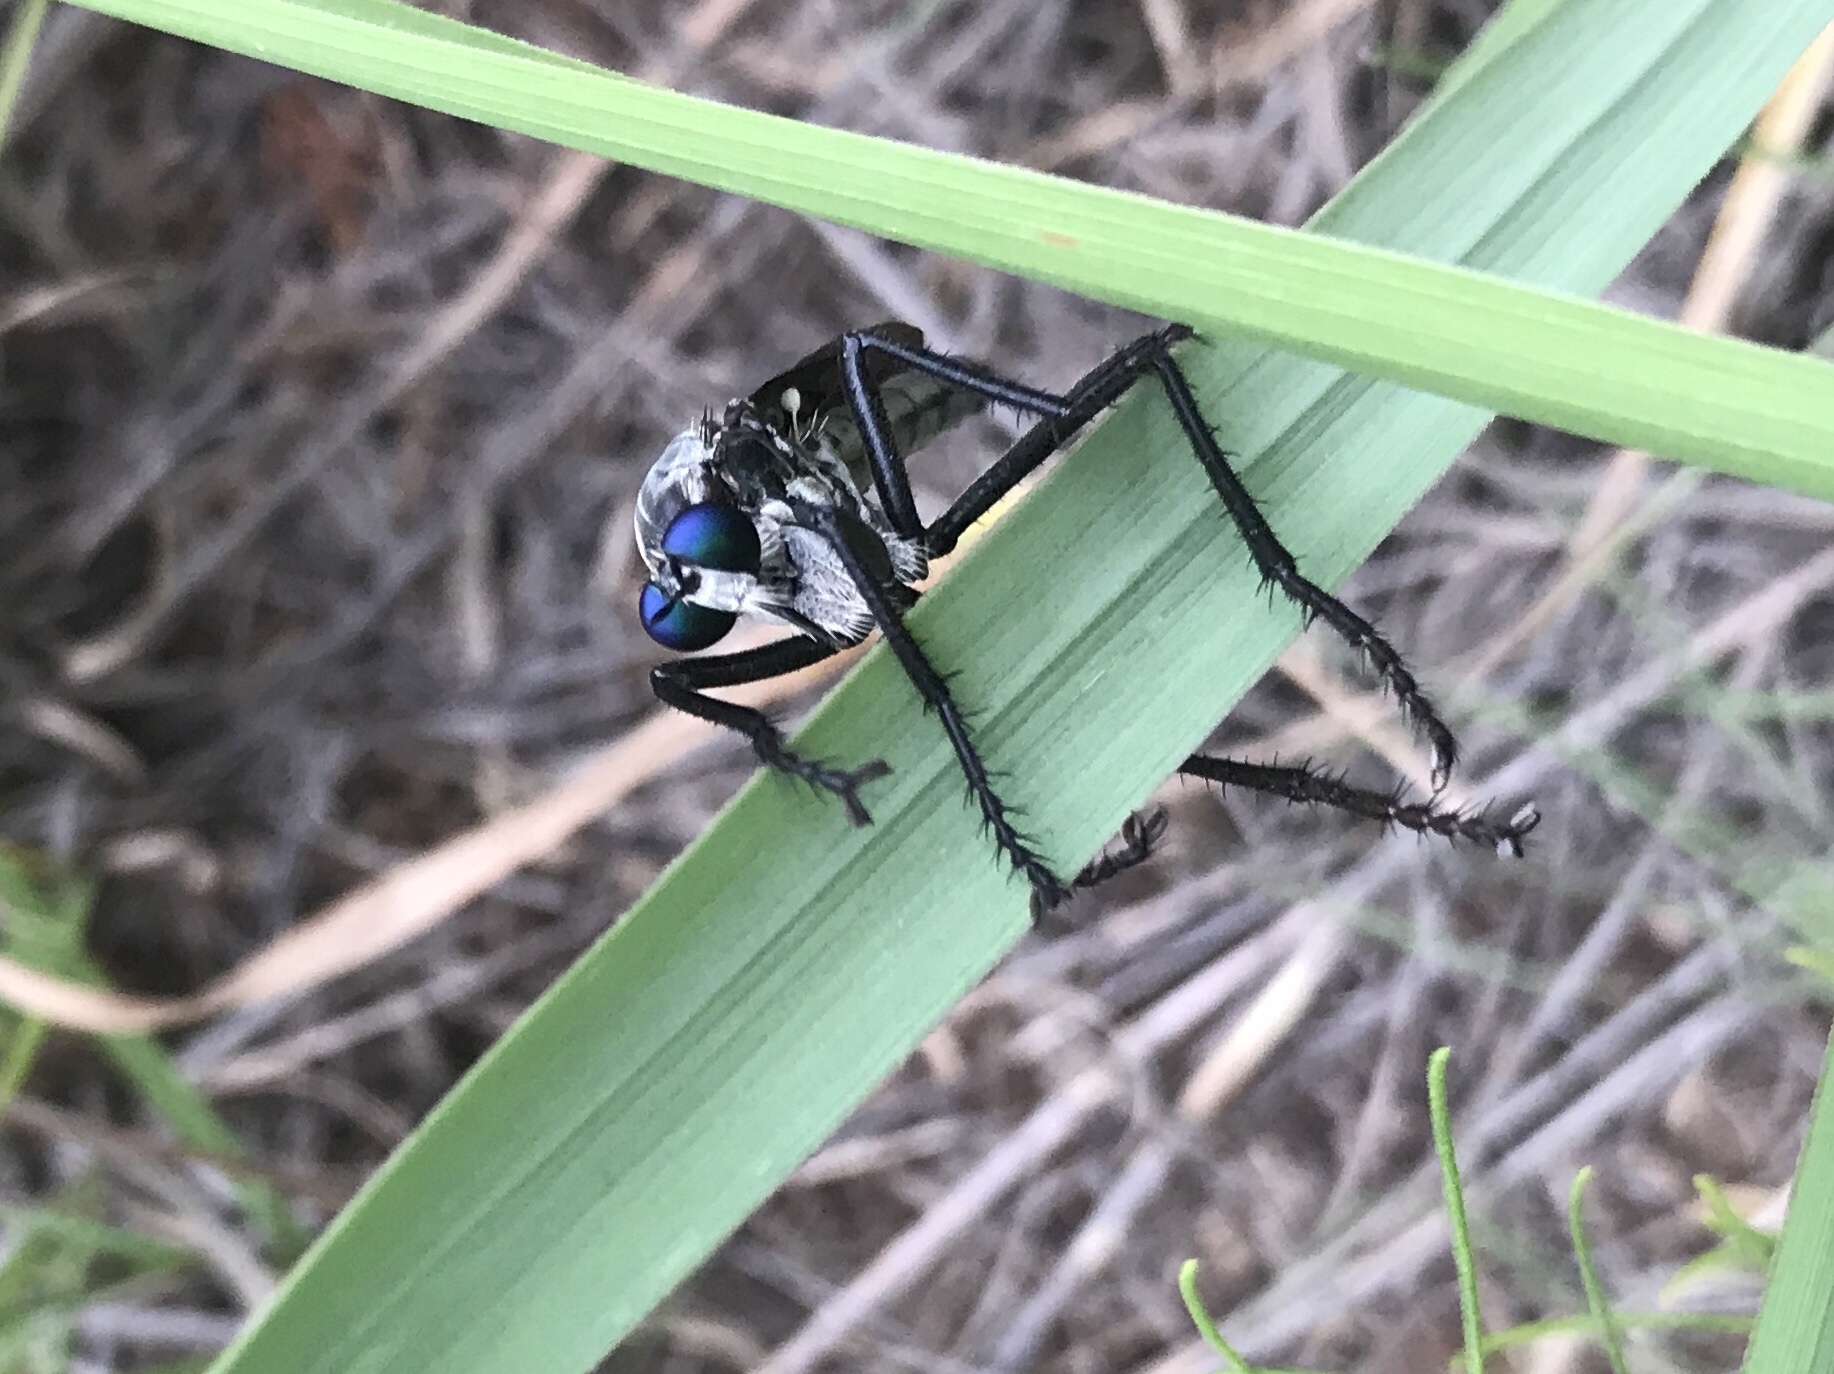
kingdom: Animalia
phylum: Arthropoda
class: Insecta
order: Diptera
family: Asilidae
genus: Microstylum
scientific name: Microstylum morosum
